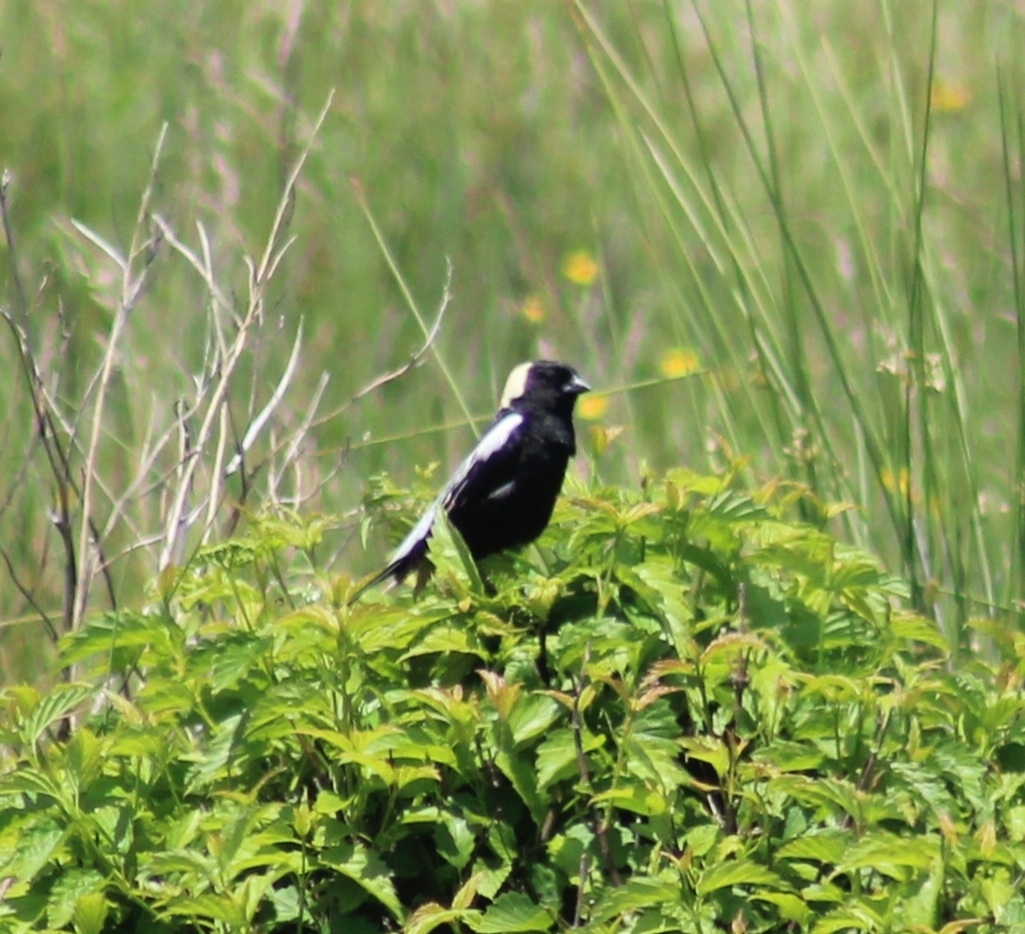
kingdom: Animalia
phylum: Chordata
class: Aves
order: Passeriformes
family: Icteridae
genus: Dolichonyx
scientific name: Dolichonyx oryzivorus
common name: Bobolink
